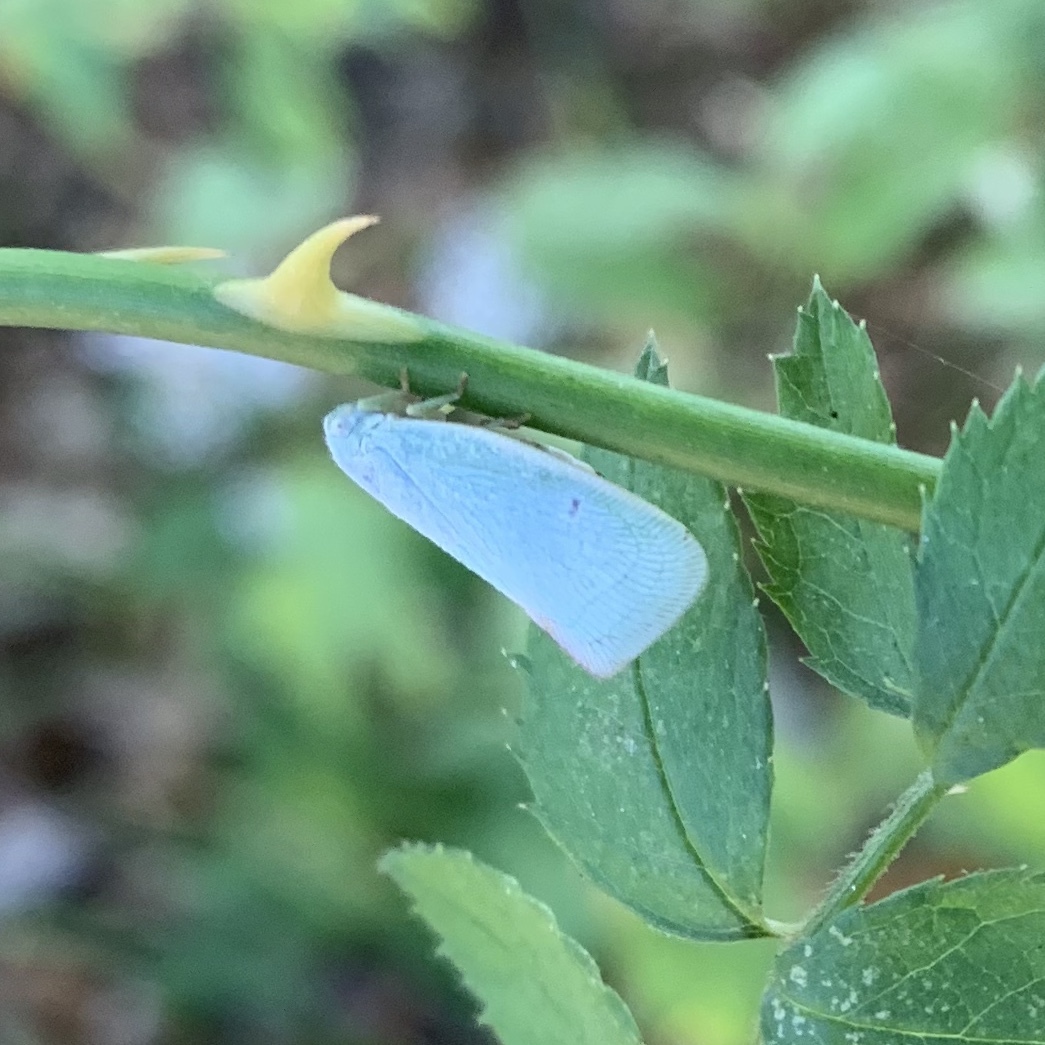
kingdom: Animalia
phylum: Arthropoda
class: Insecta
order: Hemiptera
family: Flatidae
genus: Flatormenis
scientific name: Flatormenis proxima
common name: Northern flatid planthopper
